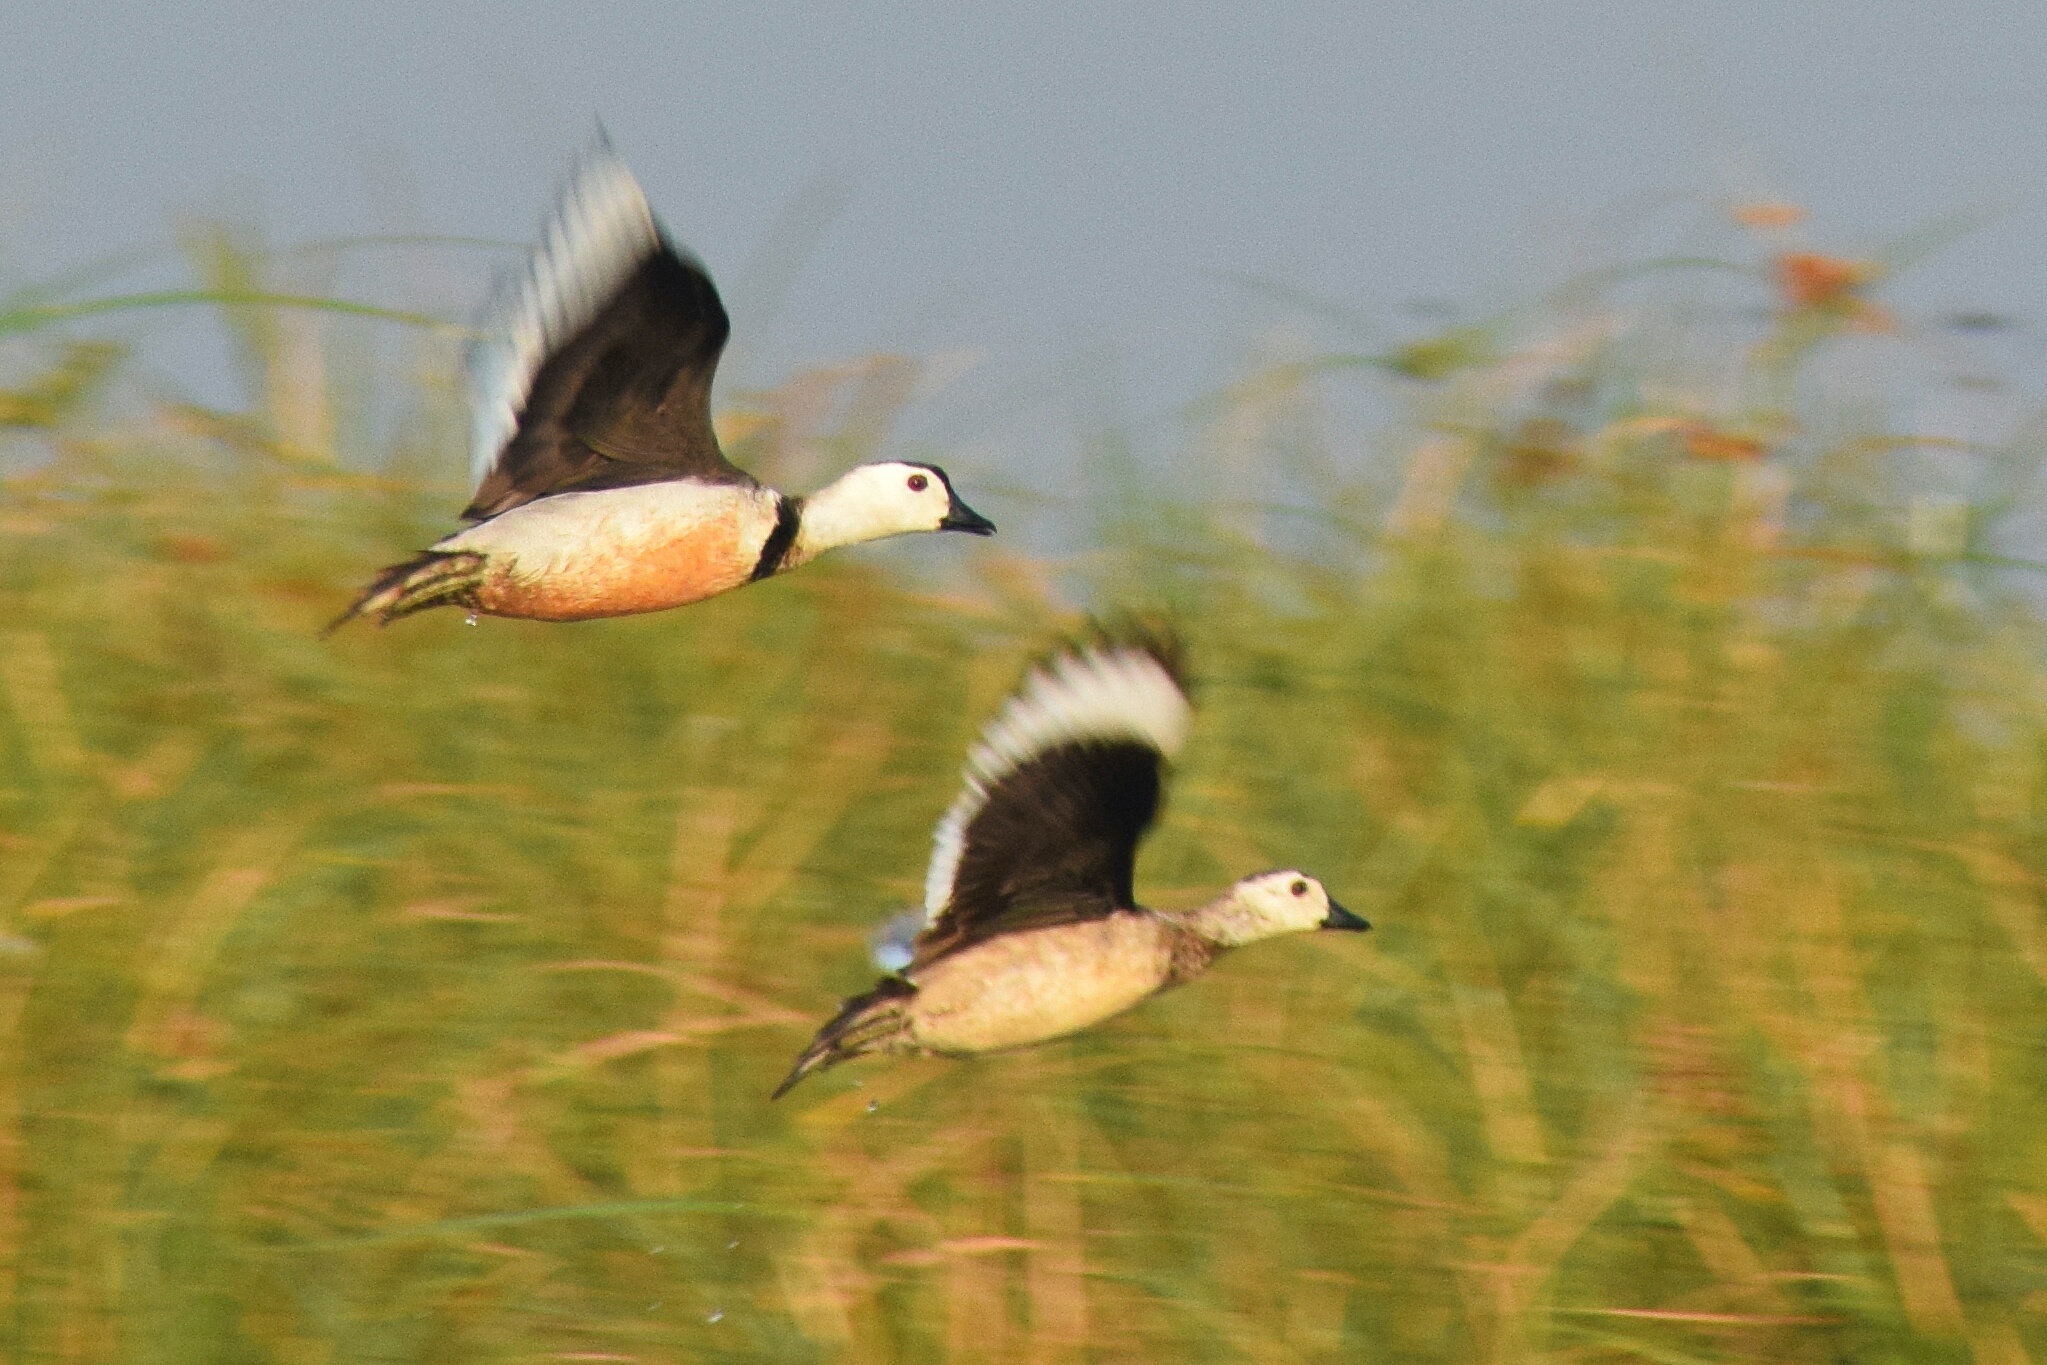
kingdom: Animalia
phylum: Chordata
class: Aves
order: Anseriformes
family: Anatidae
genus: Nettapus
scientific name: Nettapus coromandelianus
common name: Cotton pygmy-goose
